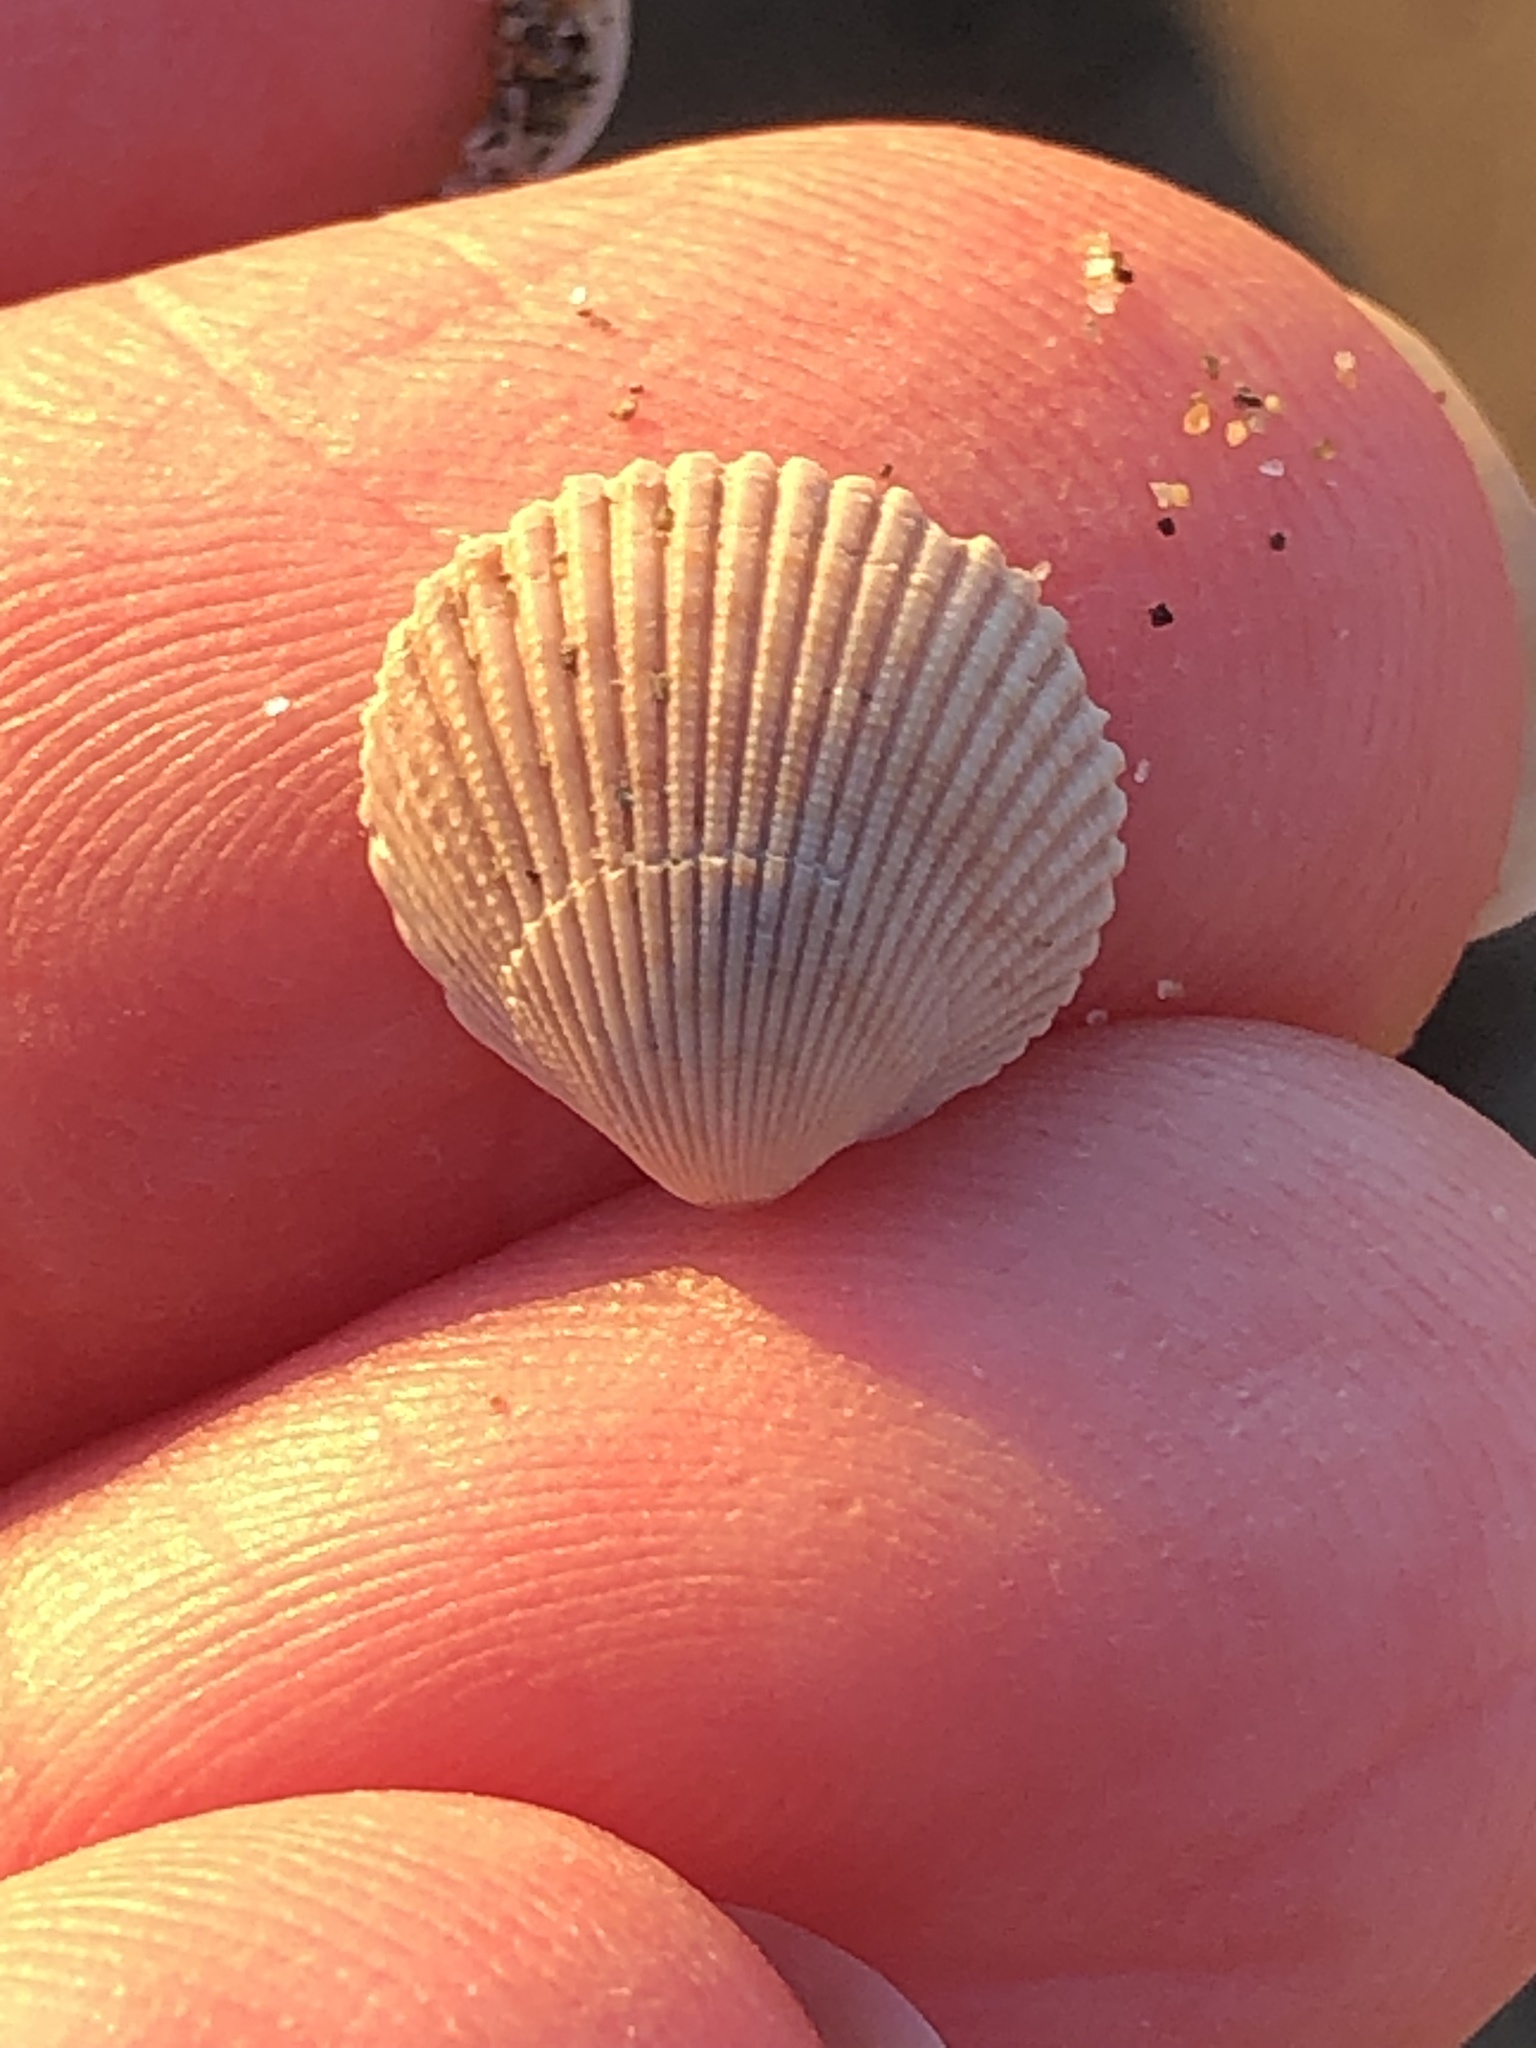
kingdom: Animalia
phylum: Mollusca
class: Bivalvia
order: Cardiida
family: Cardiidae
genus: Clinocardium
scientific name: Clinocardium nuttallii
